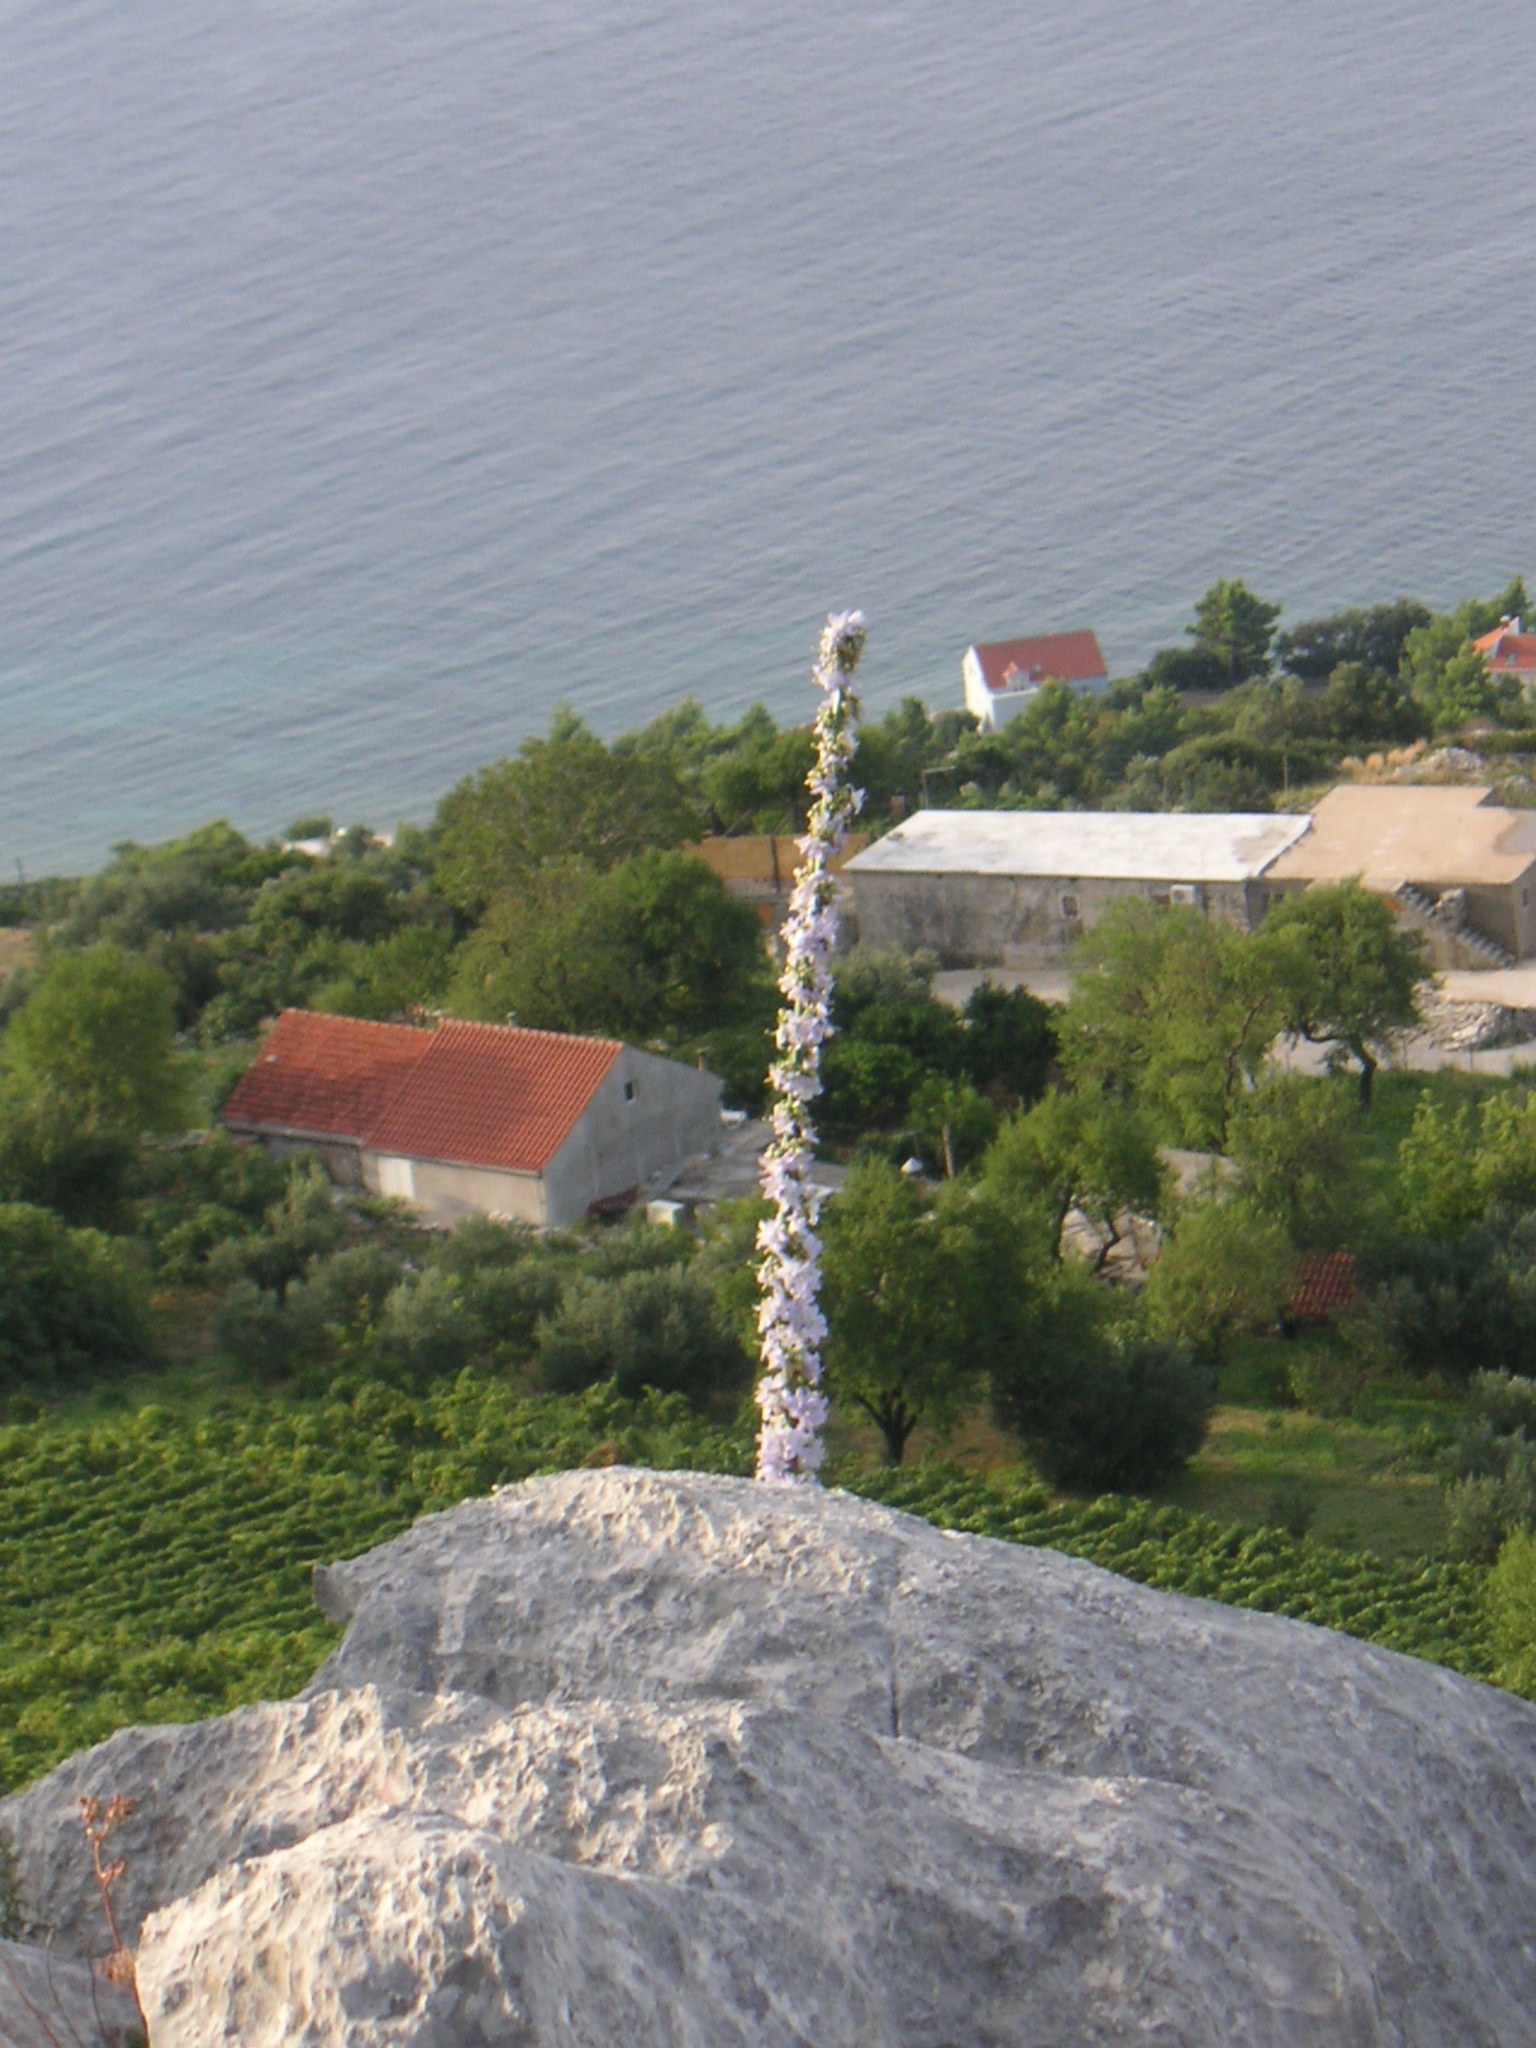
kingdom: Plantae
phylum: Tracheophyta
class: Magnoliopsida
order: Asterales
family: Campanulaceae
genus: Campanula
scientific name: Campanula pyramidalis
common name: Chimney bellflower
